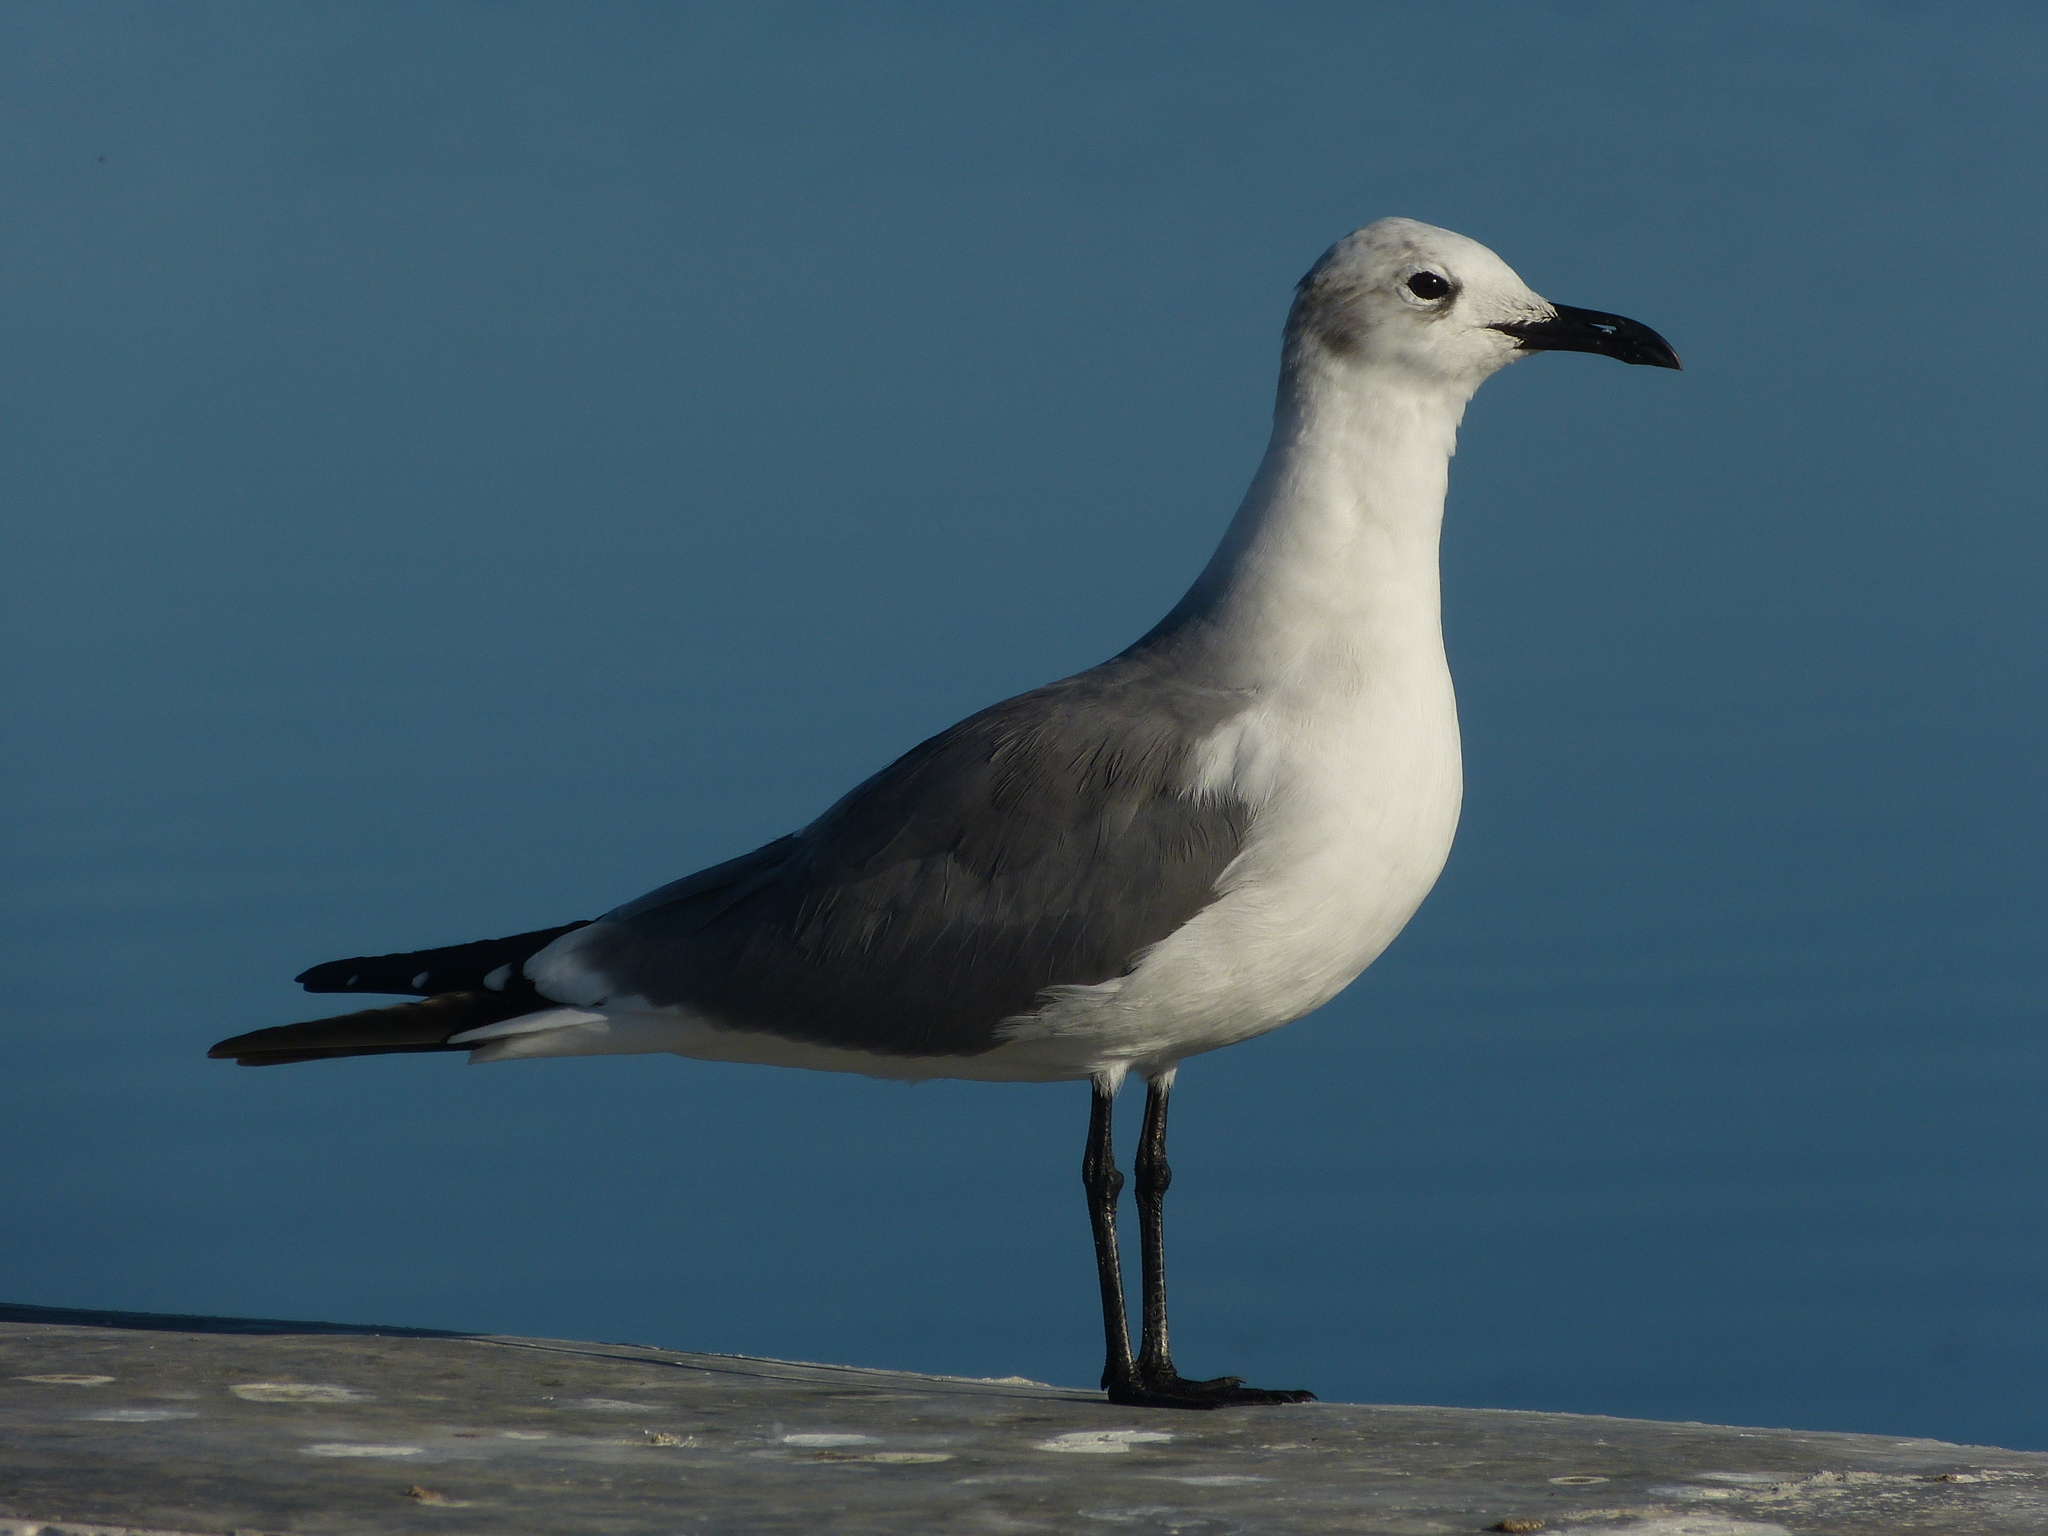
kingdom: Animalia
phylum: Chordata
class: Aves
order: Charadriiformes
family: Laridae
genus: Leucophaeus
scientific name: Leucophaeus atricilla
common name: Laughing gull
